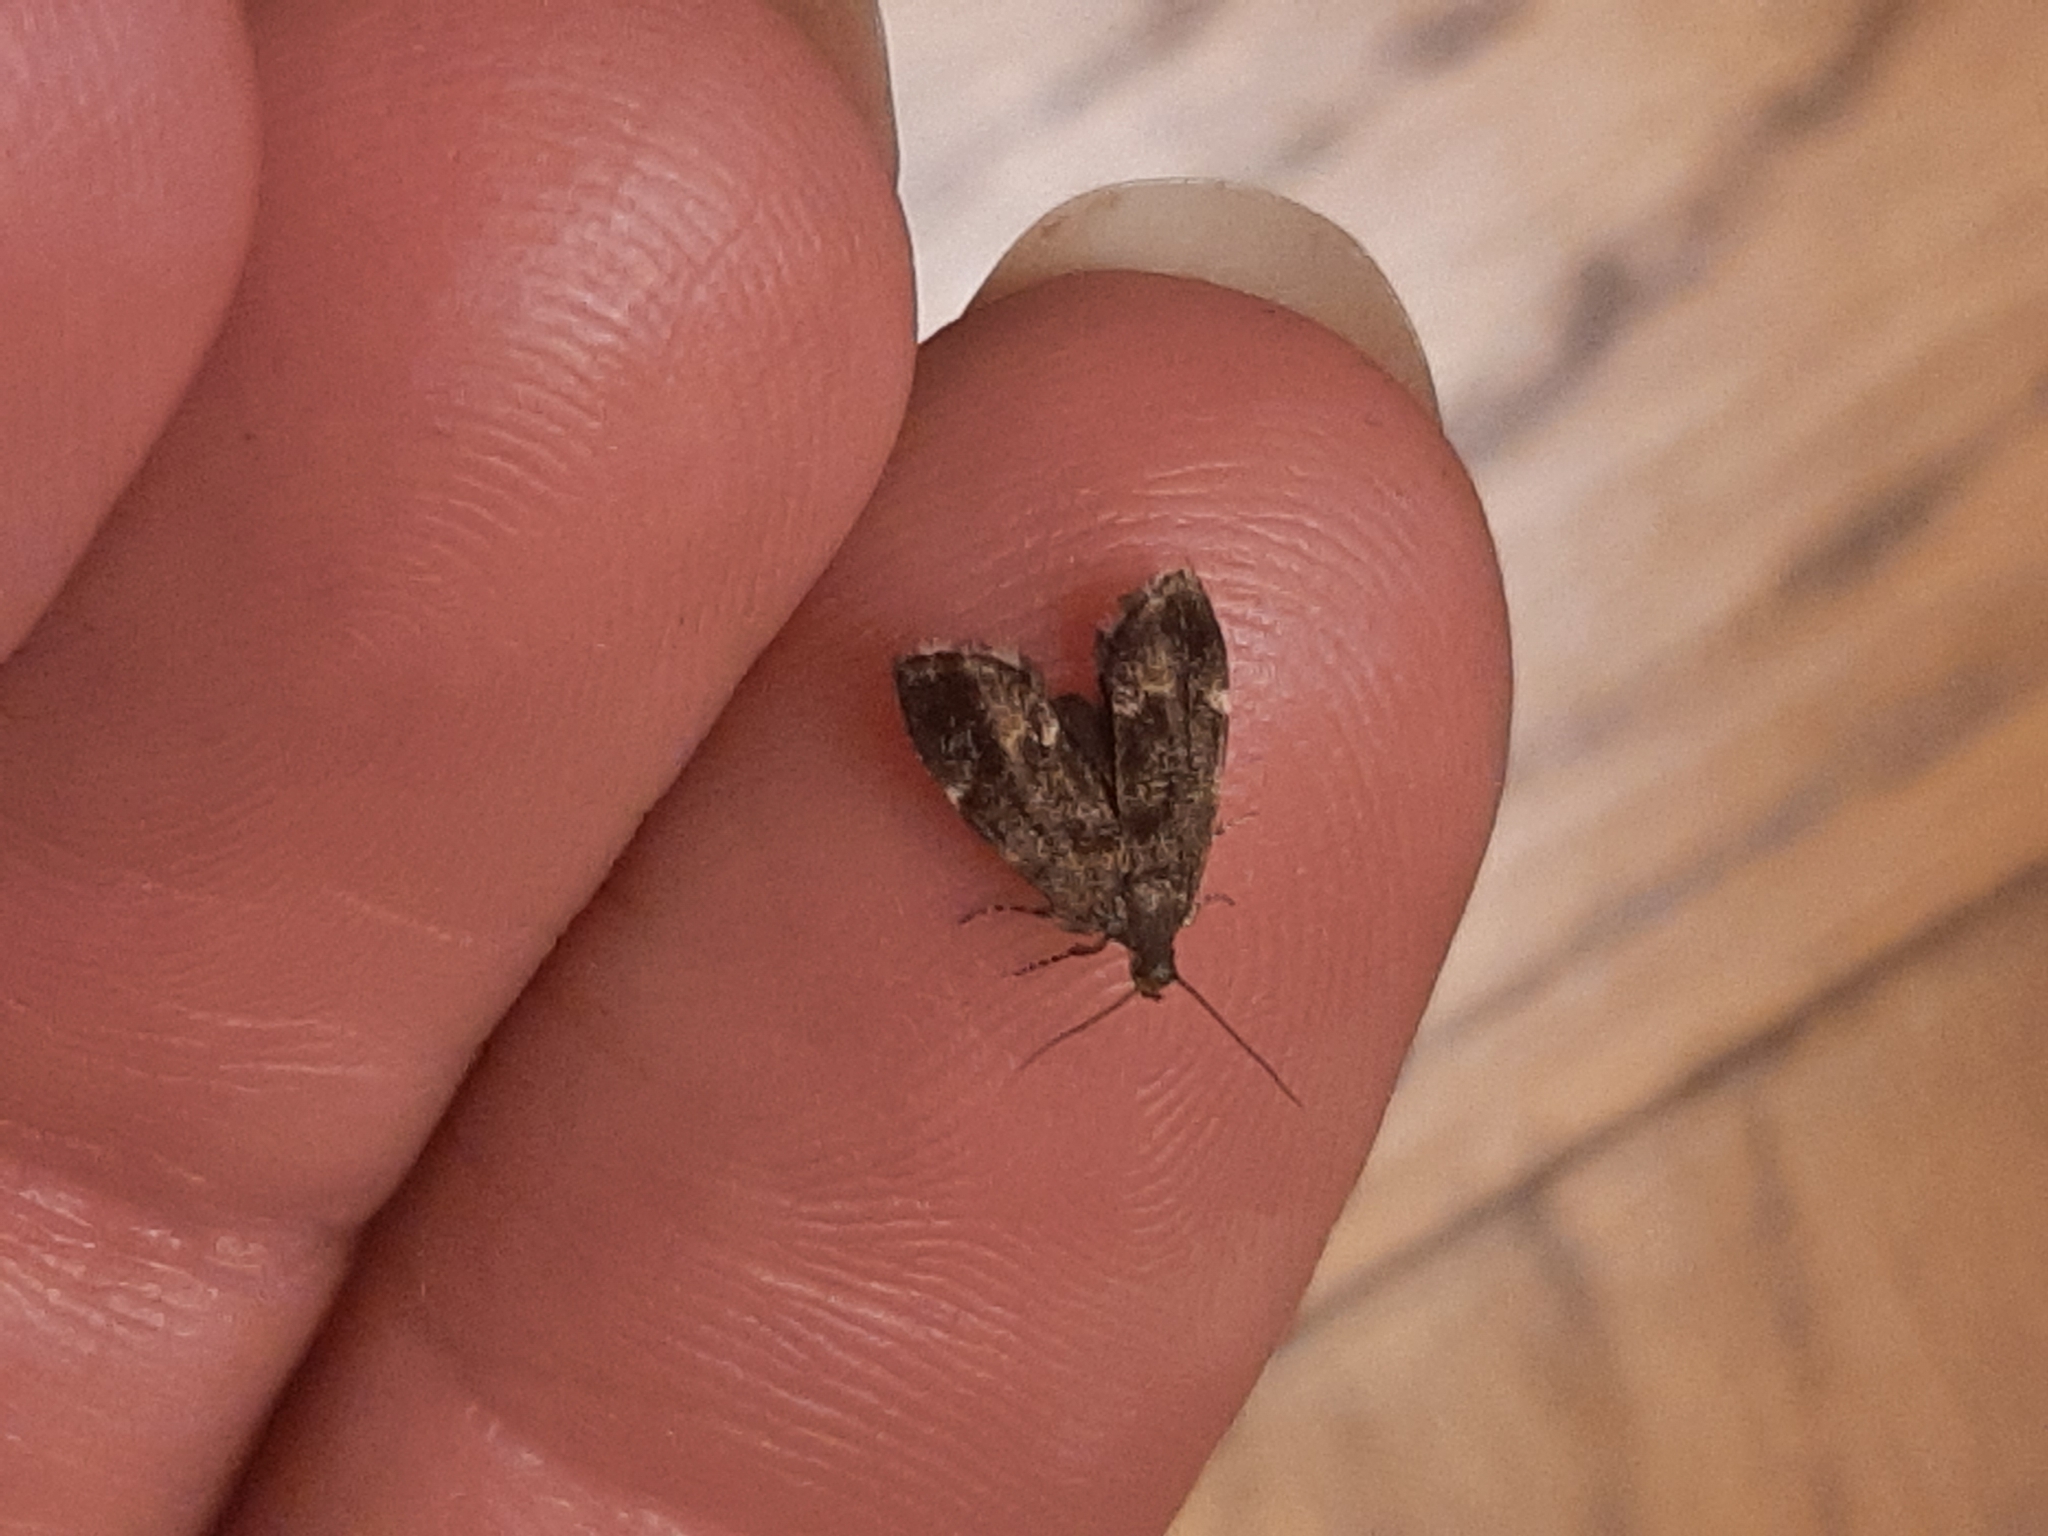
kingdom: Animalia
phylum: Arthropoda
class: Insecta
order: Lepidoptera
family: Choreutidae
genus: Anthophila
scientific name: Anthophila fabriciana
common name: Nettle-tap
